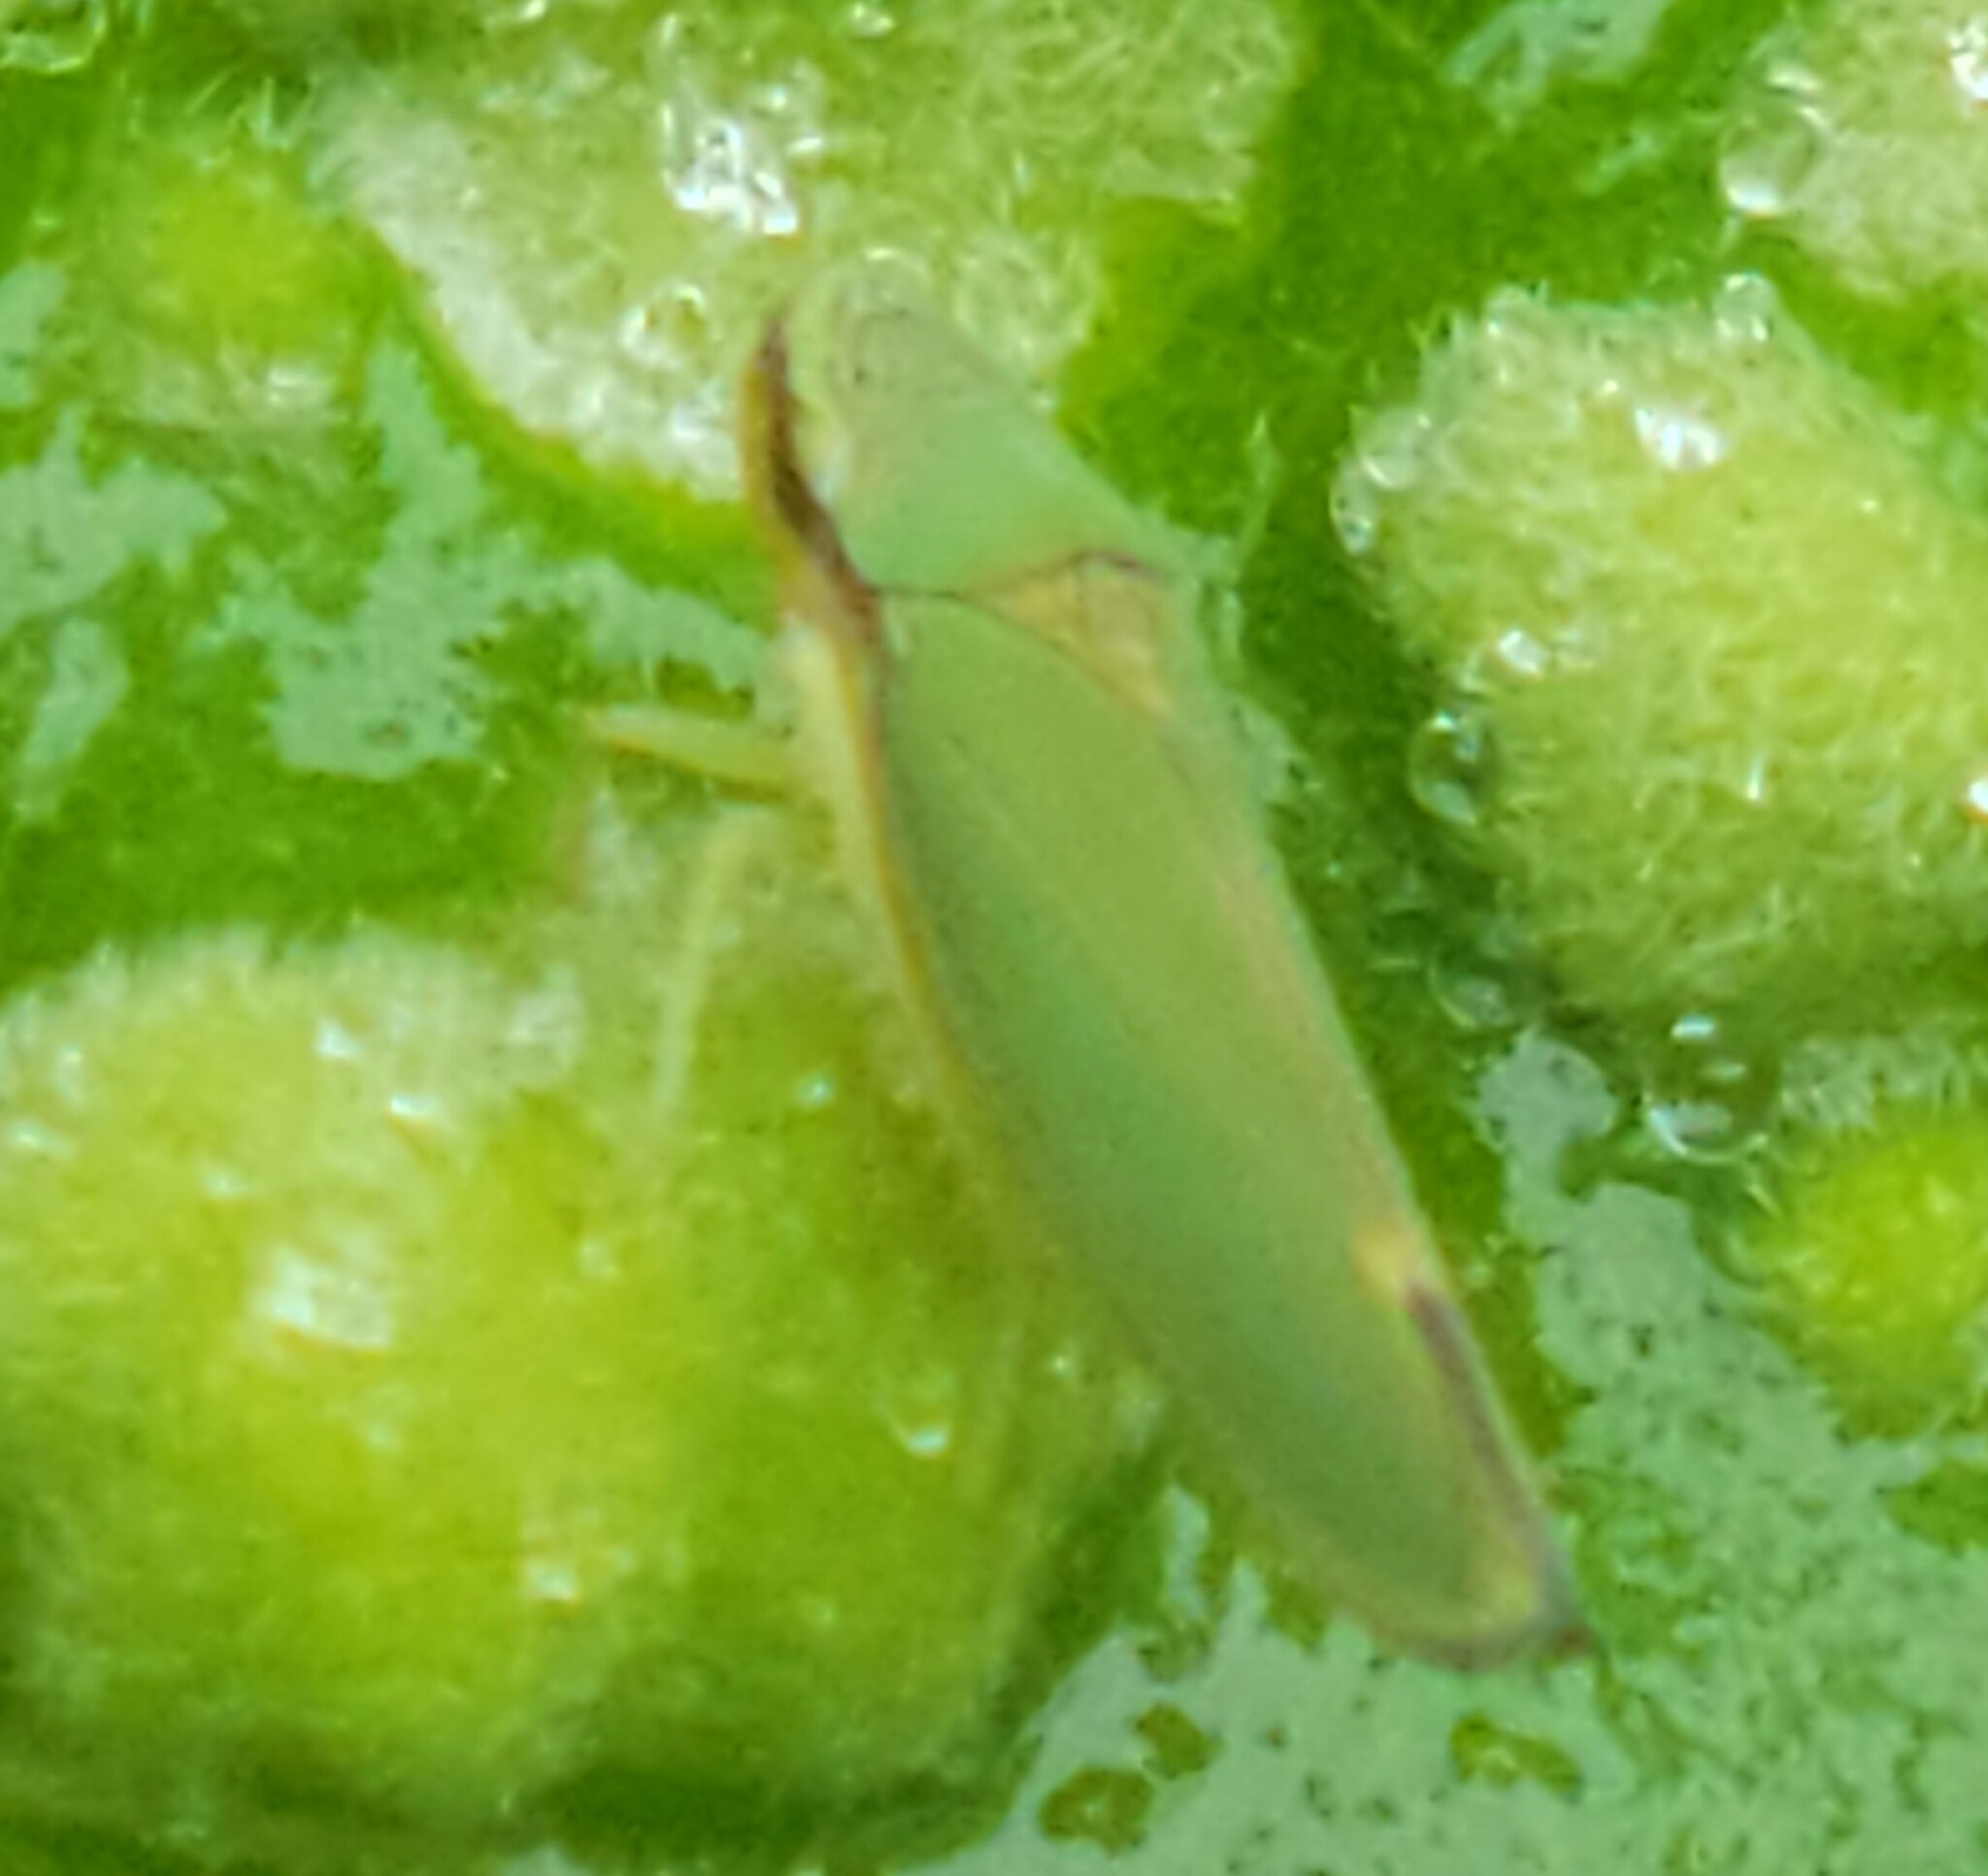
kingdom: Animalia
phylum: Arthropoda
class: Insecta
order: Hemiptera
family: Cicadellidae
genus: Graphogonalia
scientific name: Graphogonalia evagorata
